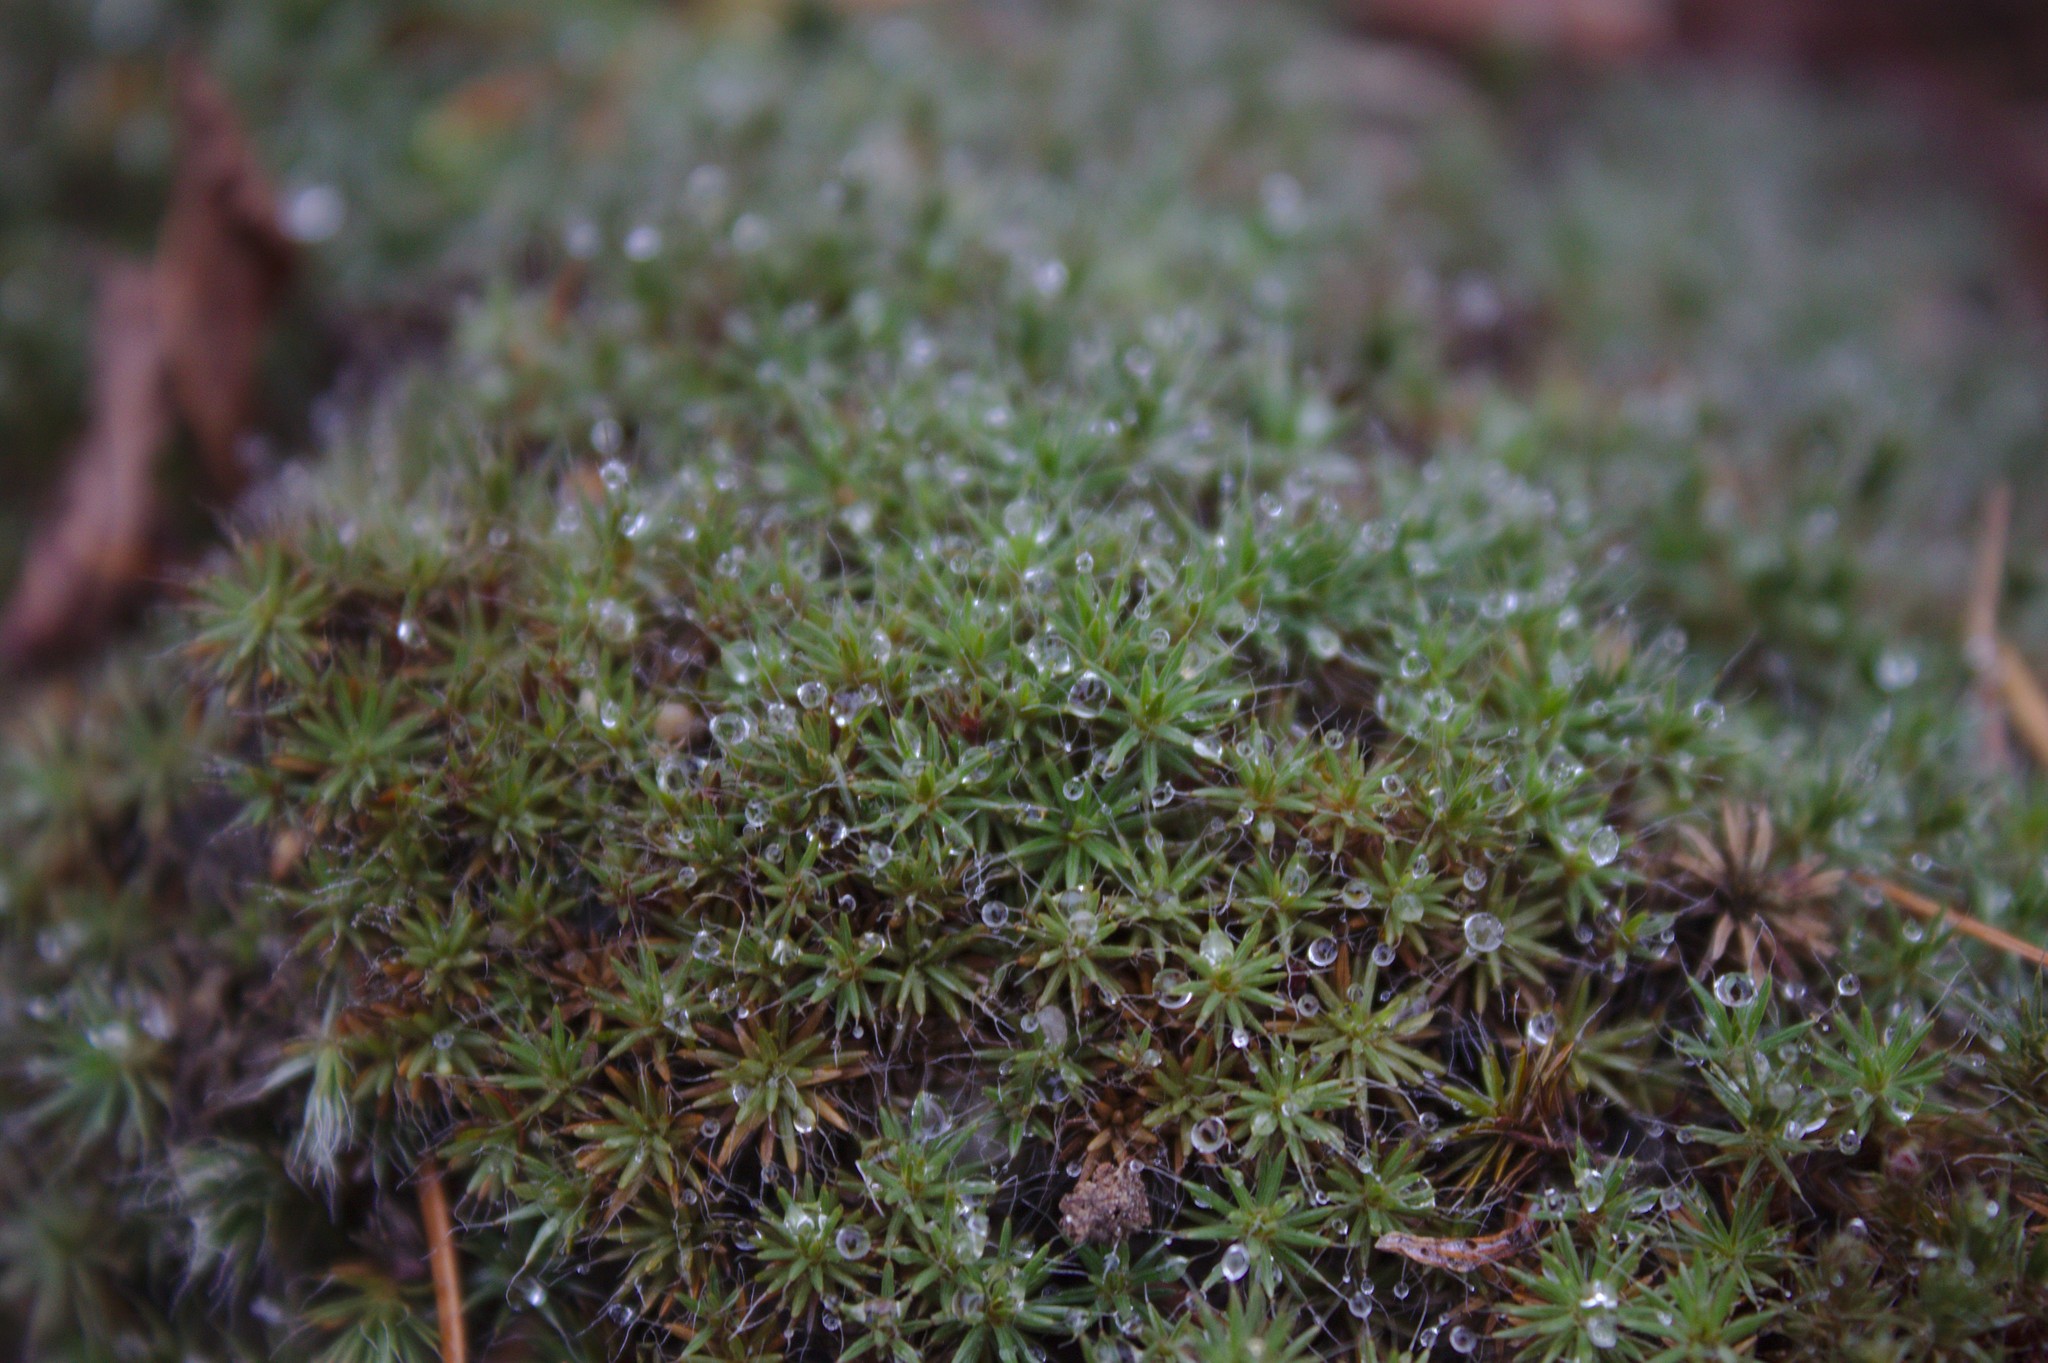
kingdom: Plantae
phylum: Bryophyta
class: Polytrichopsida
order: Polytrichales
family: Polytrichaceae
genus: Polytrichum
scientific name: Polytrichum piliferum
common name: Bristly haircap
